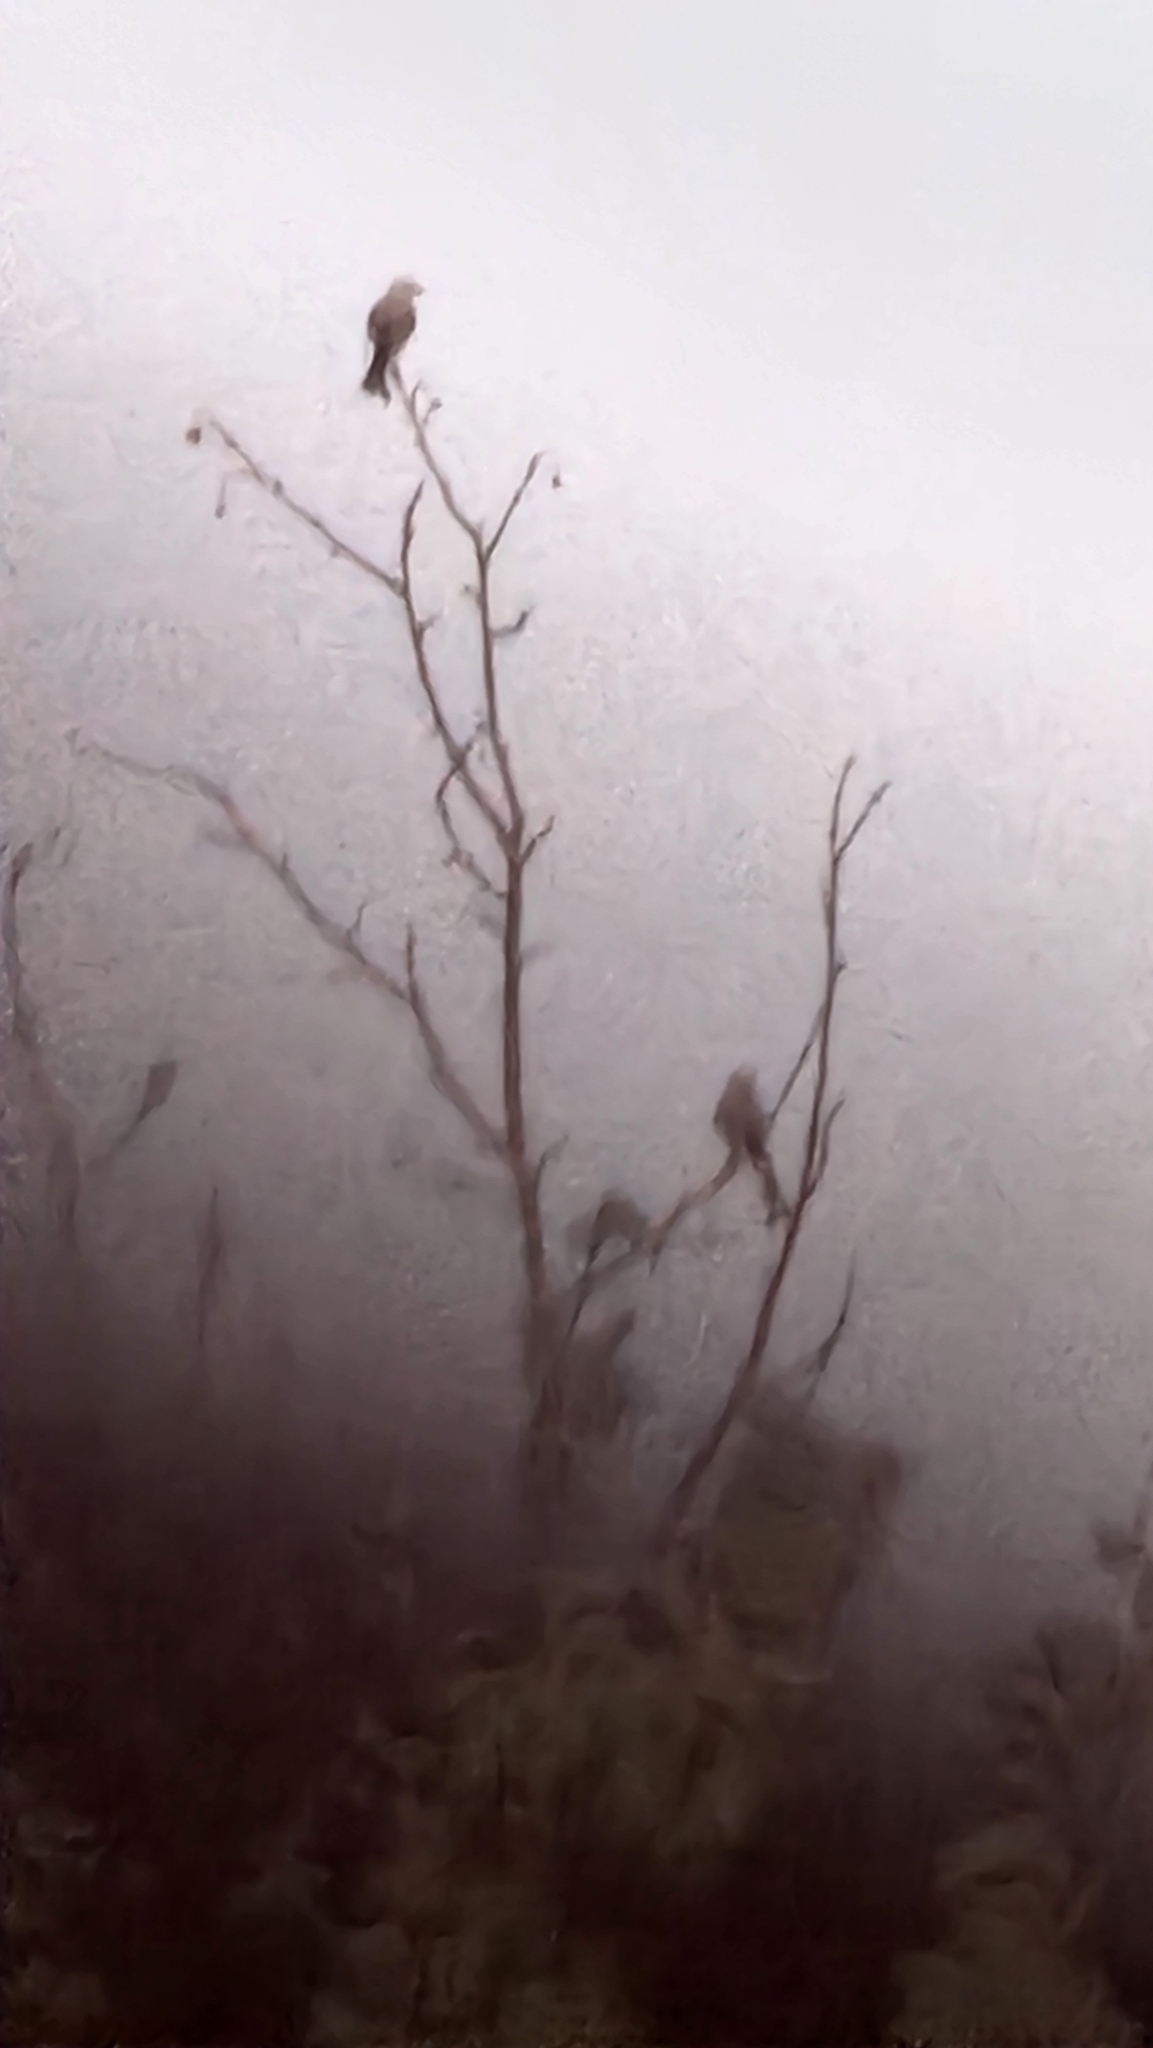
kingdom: Animalia
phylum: Chordata
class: Aves
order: Passeriformes
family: Tyrannidae
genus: Tyrannus
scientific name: Tyrannus forficatus
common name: Scissor-tailed flycatcher
